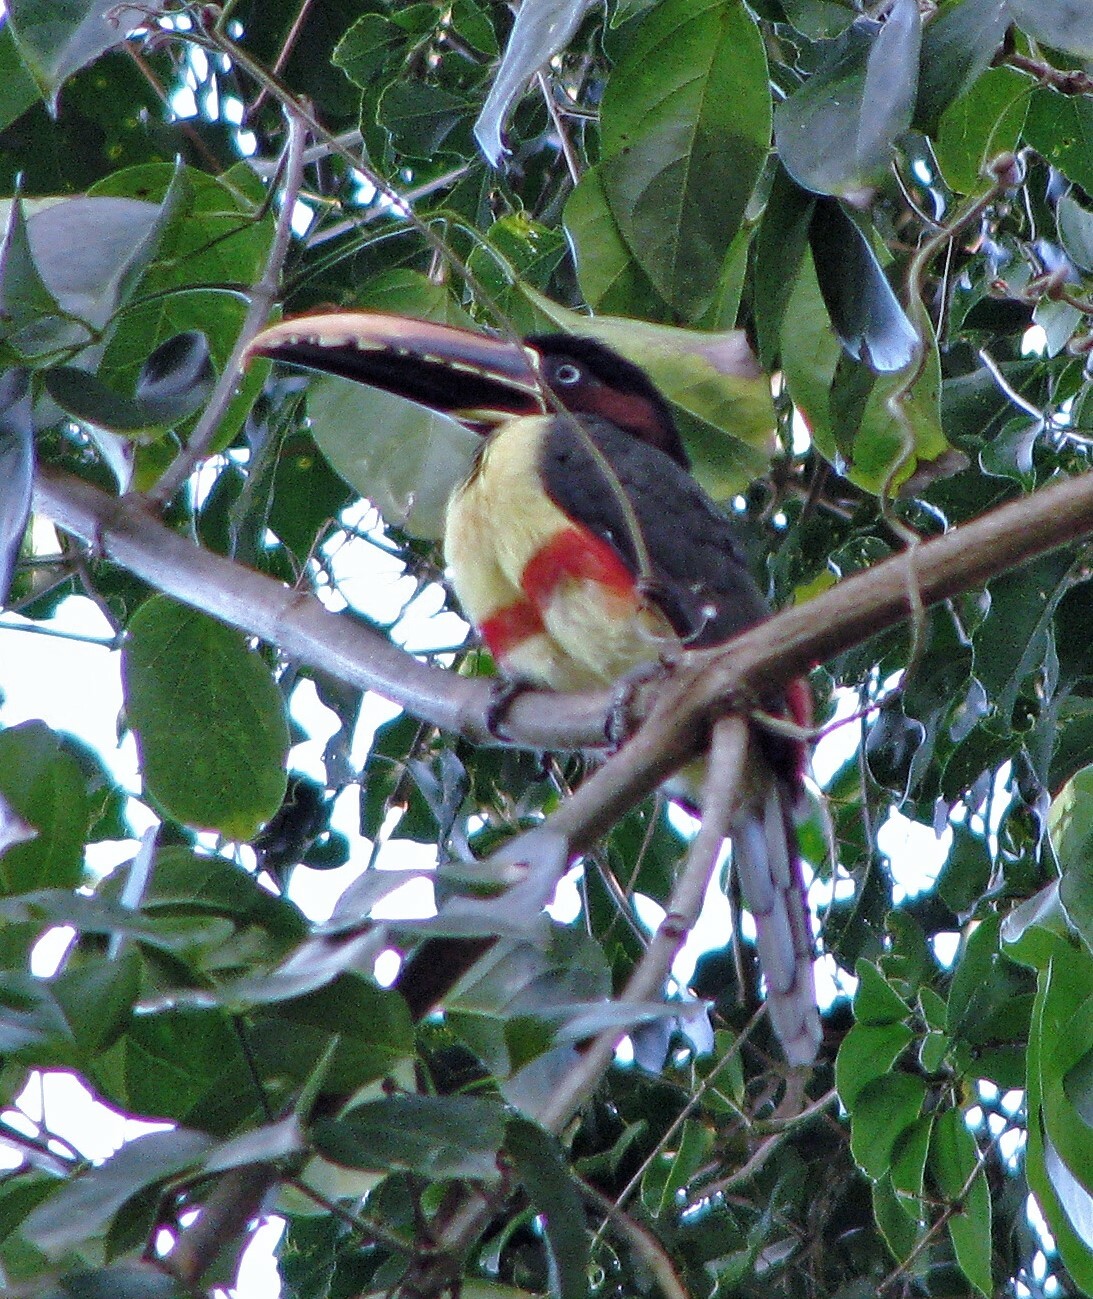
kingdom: Animalia
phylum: Chordata
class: Aves
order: Piciformes
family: Ramphastidae
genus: Pteroglossus
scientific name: Pteroglossus castanotis
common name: Chestnut-eared aracari
